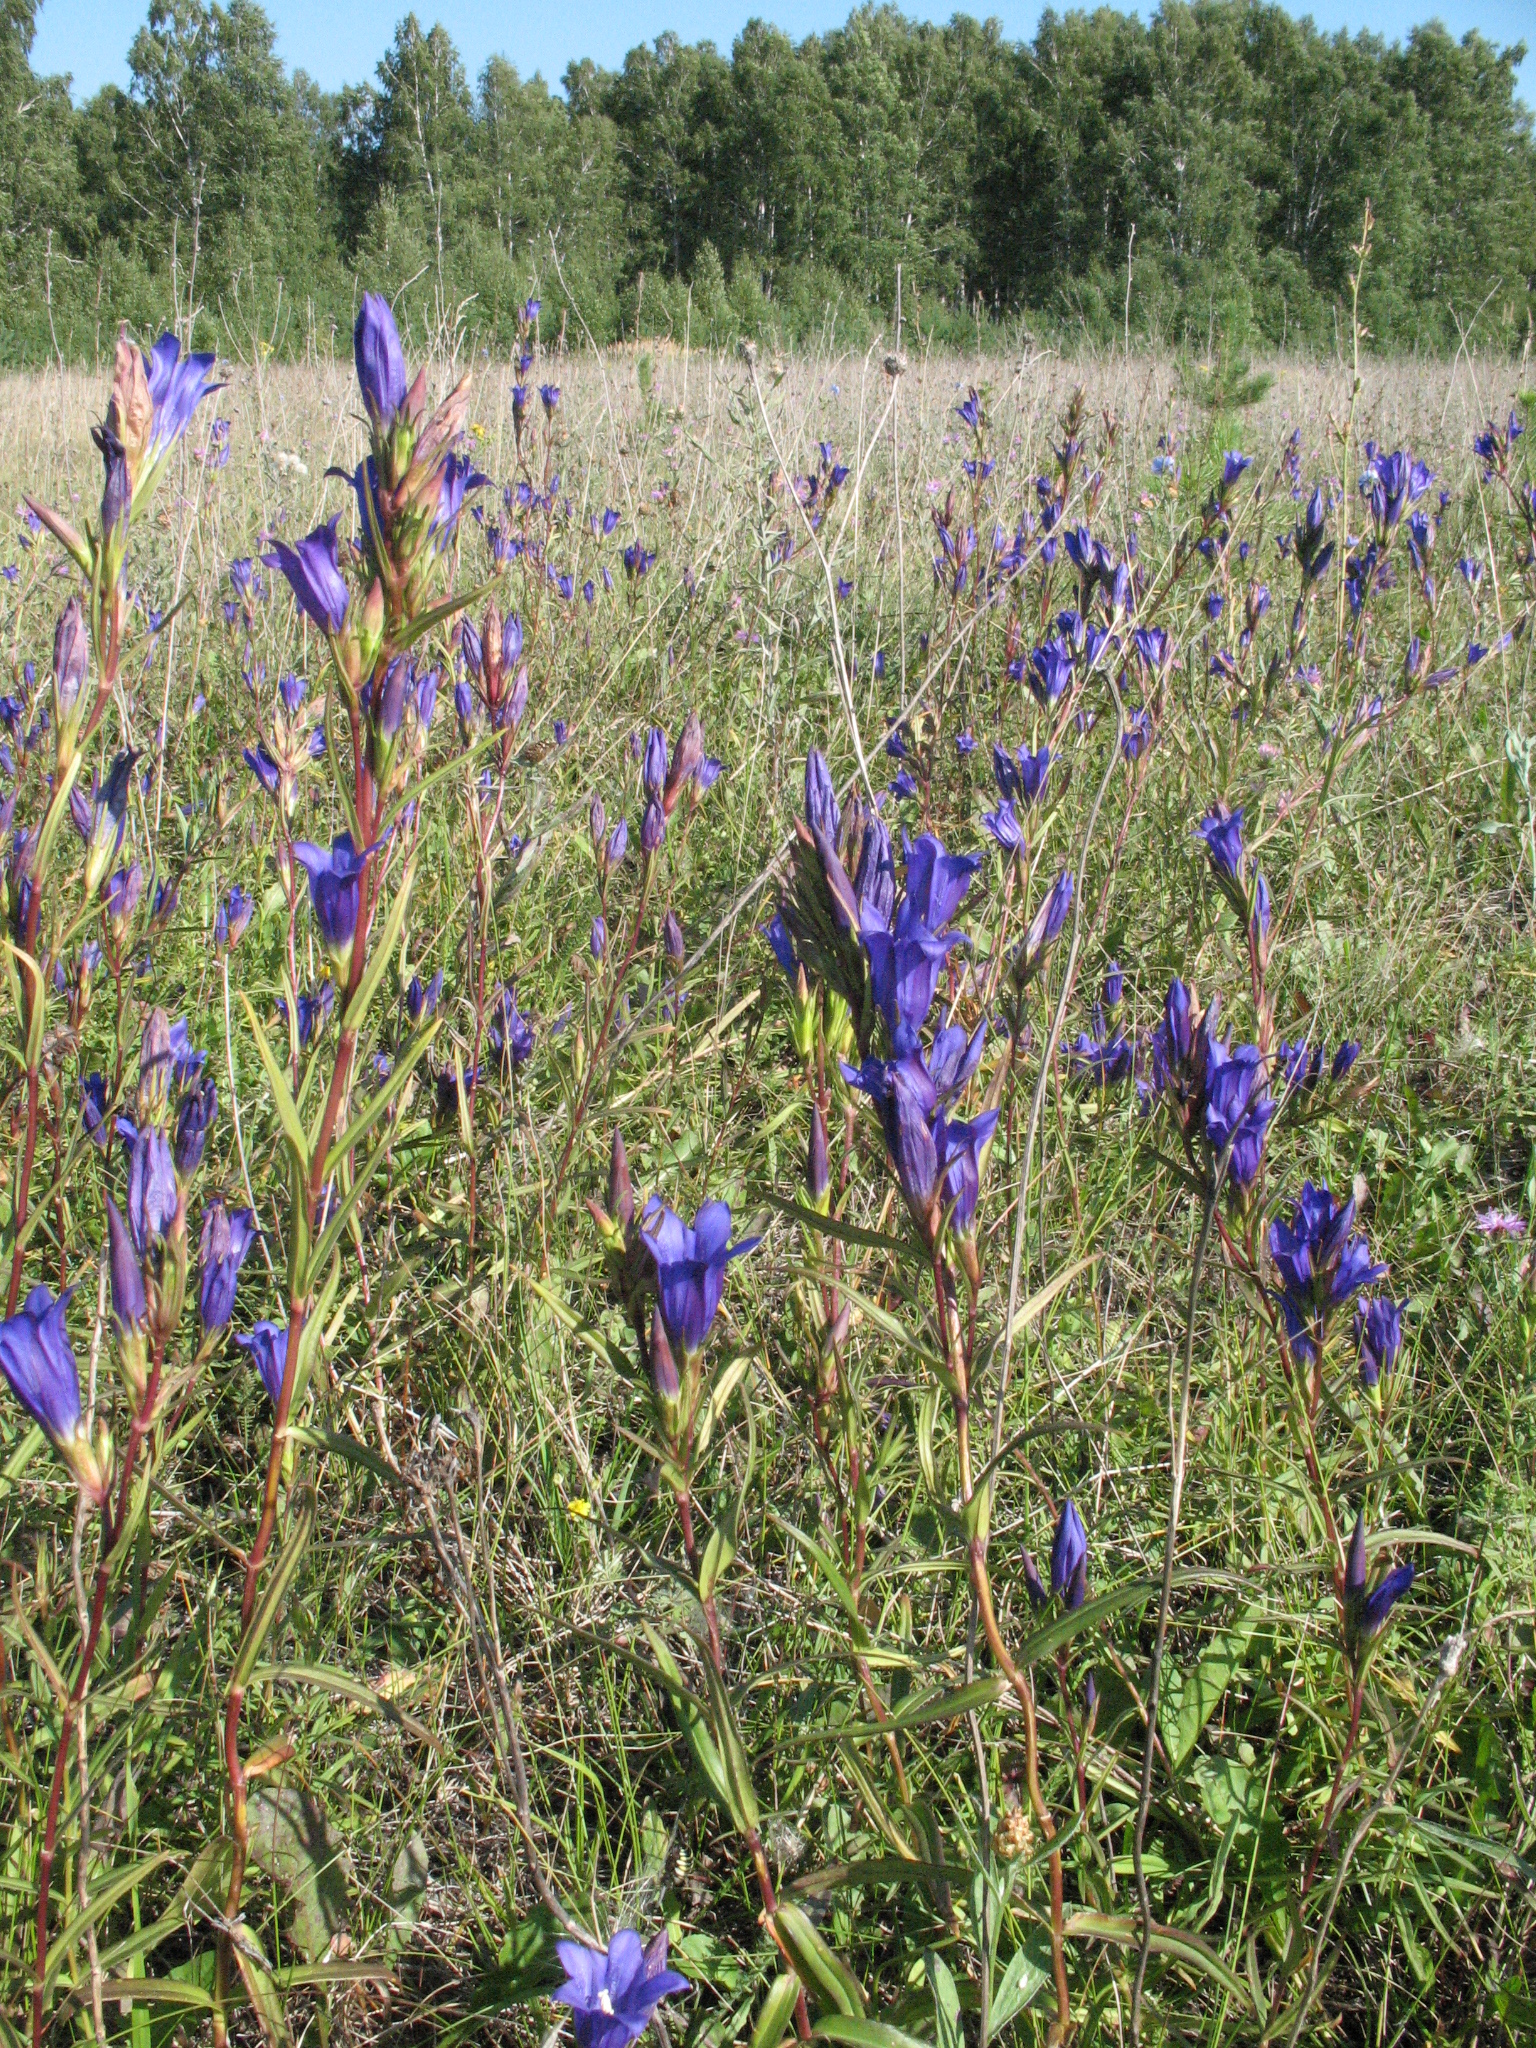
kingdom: Plantae
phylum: Tracheophyta
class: Magnoliopsida
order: Gentianales
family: Gentianaceae
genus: Gentiana
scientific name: Gentiana pneumonanthe
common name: Marsh gentian
